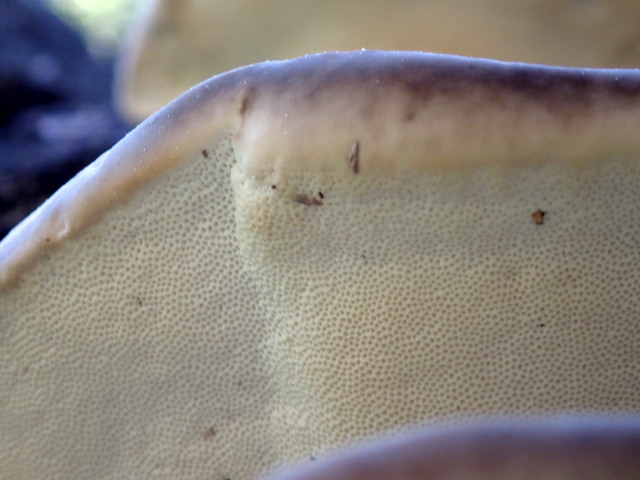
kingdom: Fungi
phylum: Basidiomycota
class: Agaricomycetes
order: Polyporales
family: Polyporaceae
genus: Trametes
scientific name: Trametes lactinea
